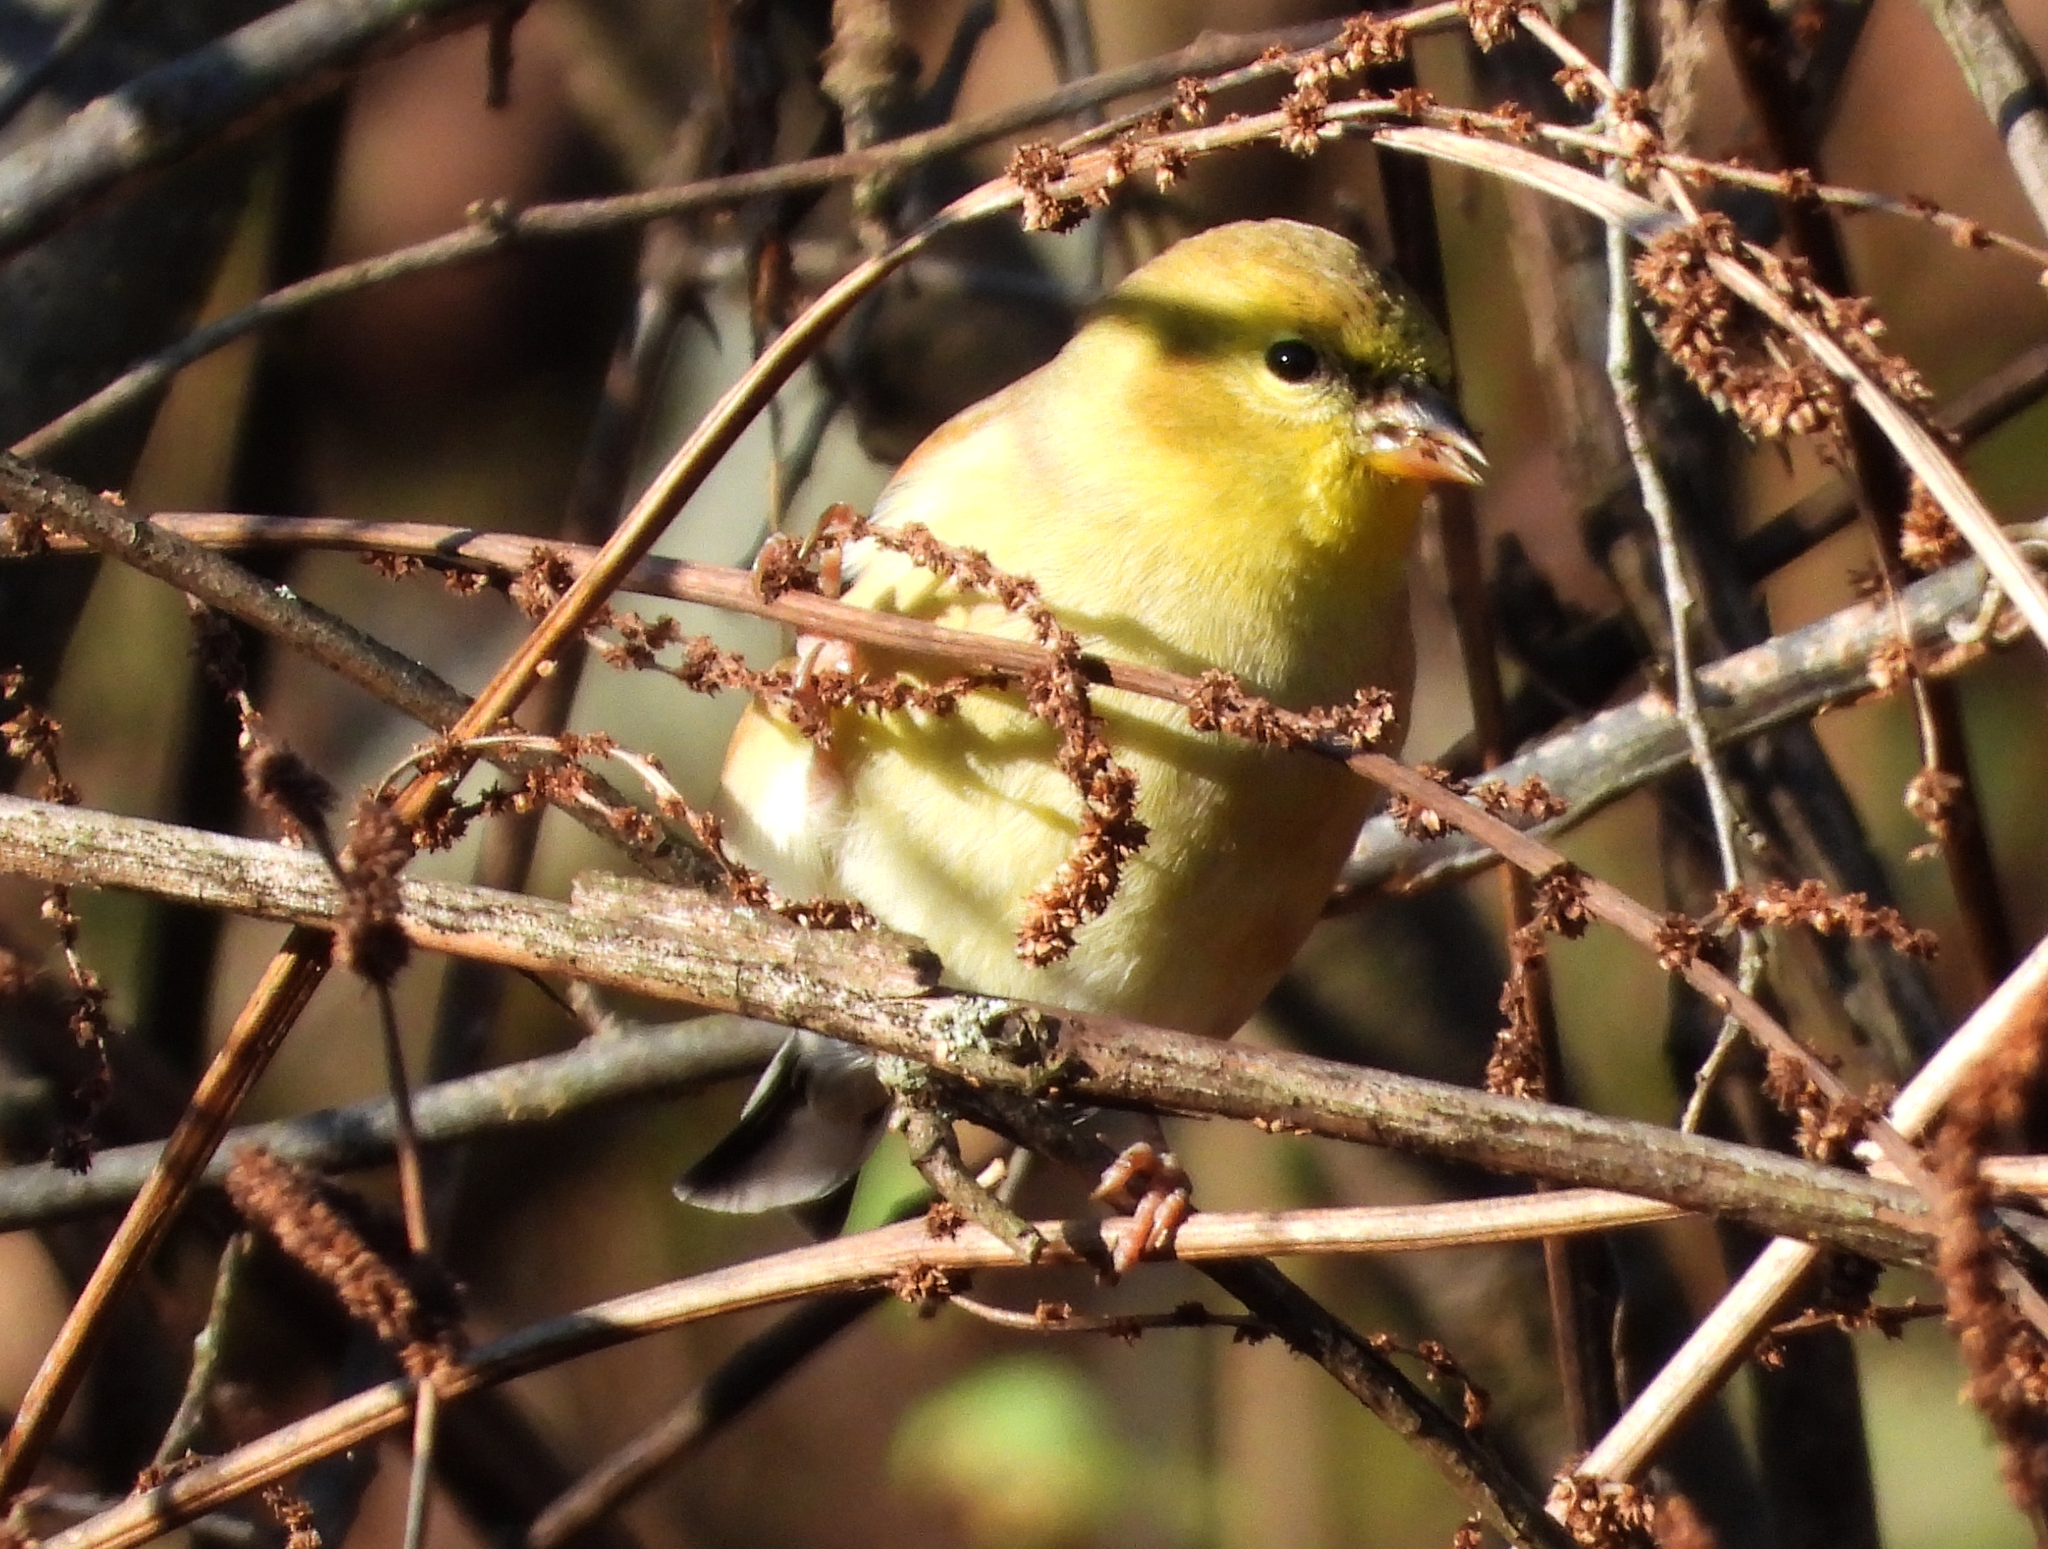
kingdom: Animalia
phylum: Chordata
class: Aves
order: Passeriformes
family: Fringillidae
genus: Spinus
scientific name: Spinus tristis
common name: American goldfinch
